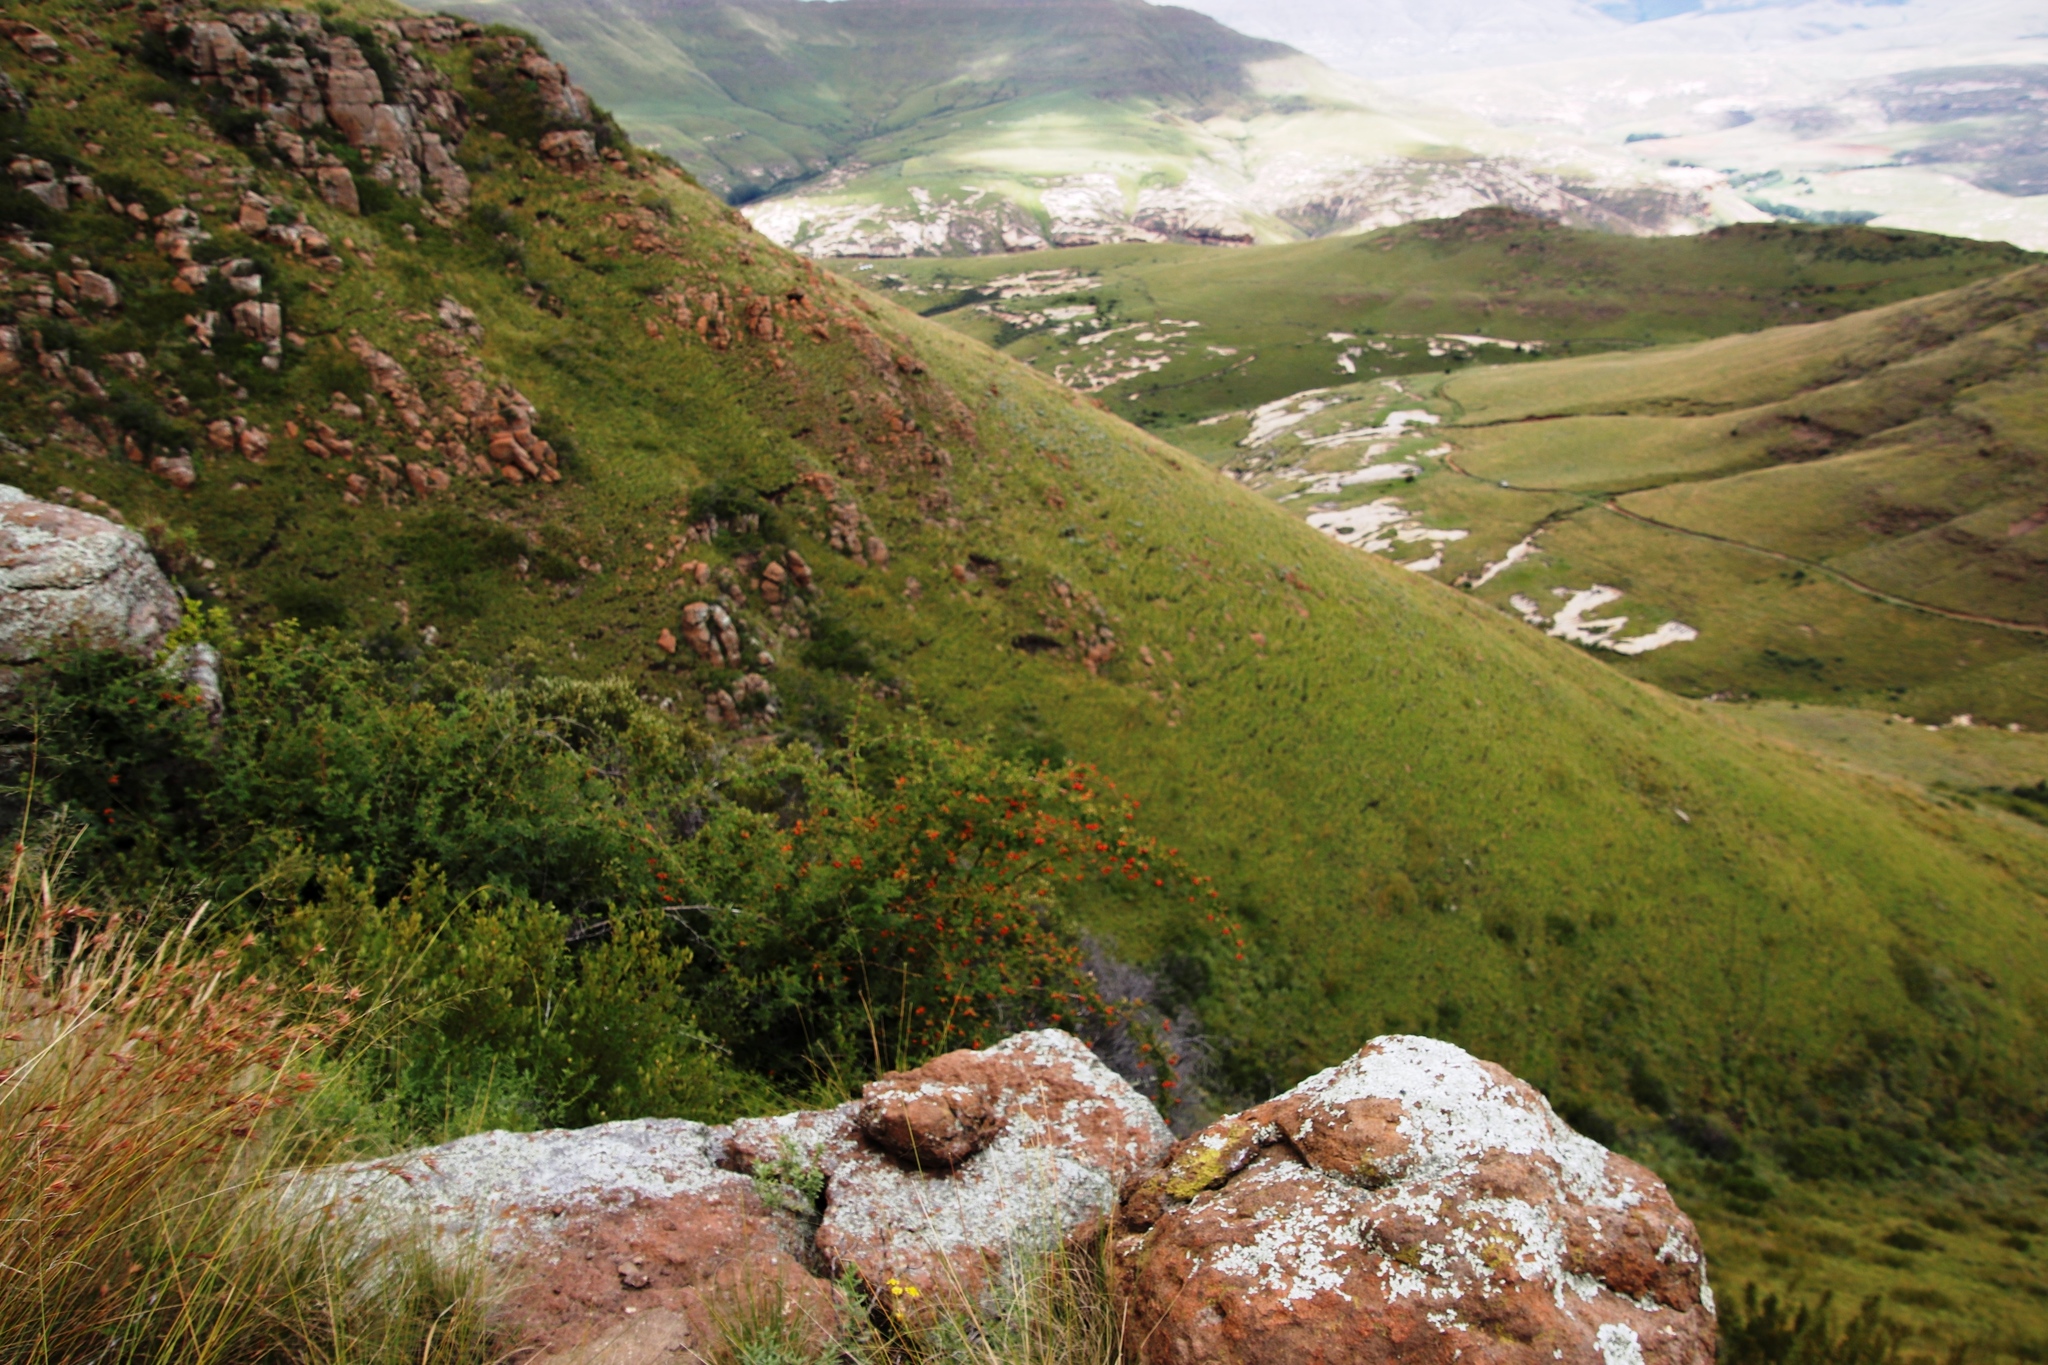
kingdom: Plantae
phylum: Tracheophyta
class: Magnoliopsida
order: Rosales
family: Rosaceae
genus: Rosa
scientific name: Rosa rubiginosa
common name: Sweet-briar
